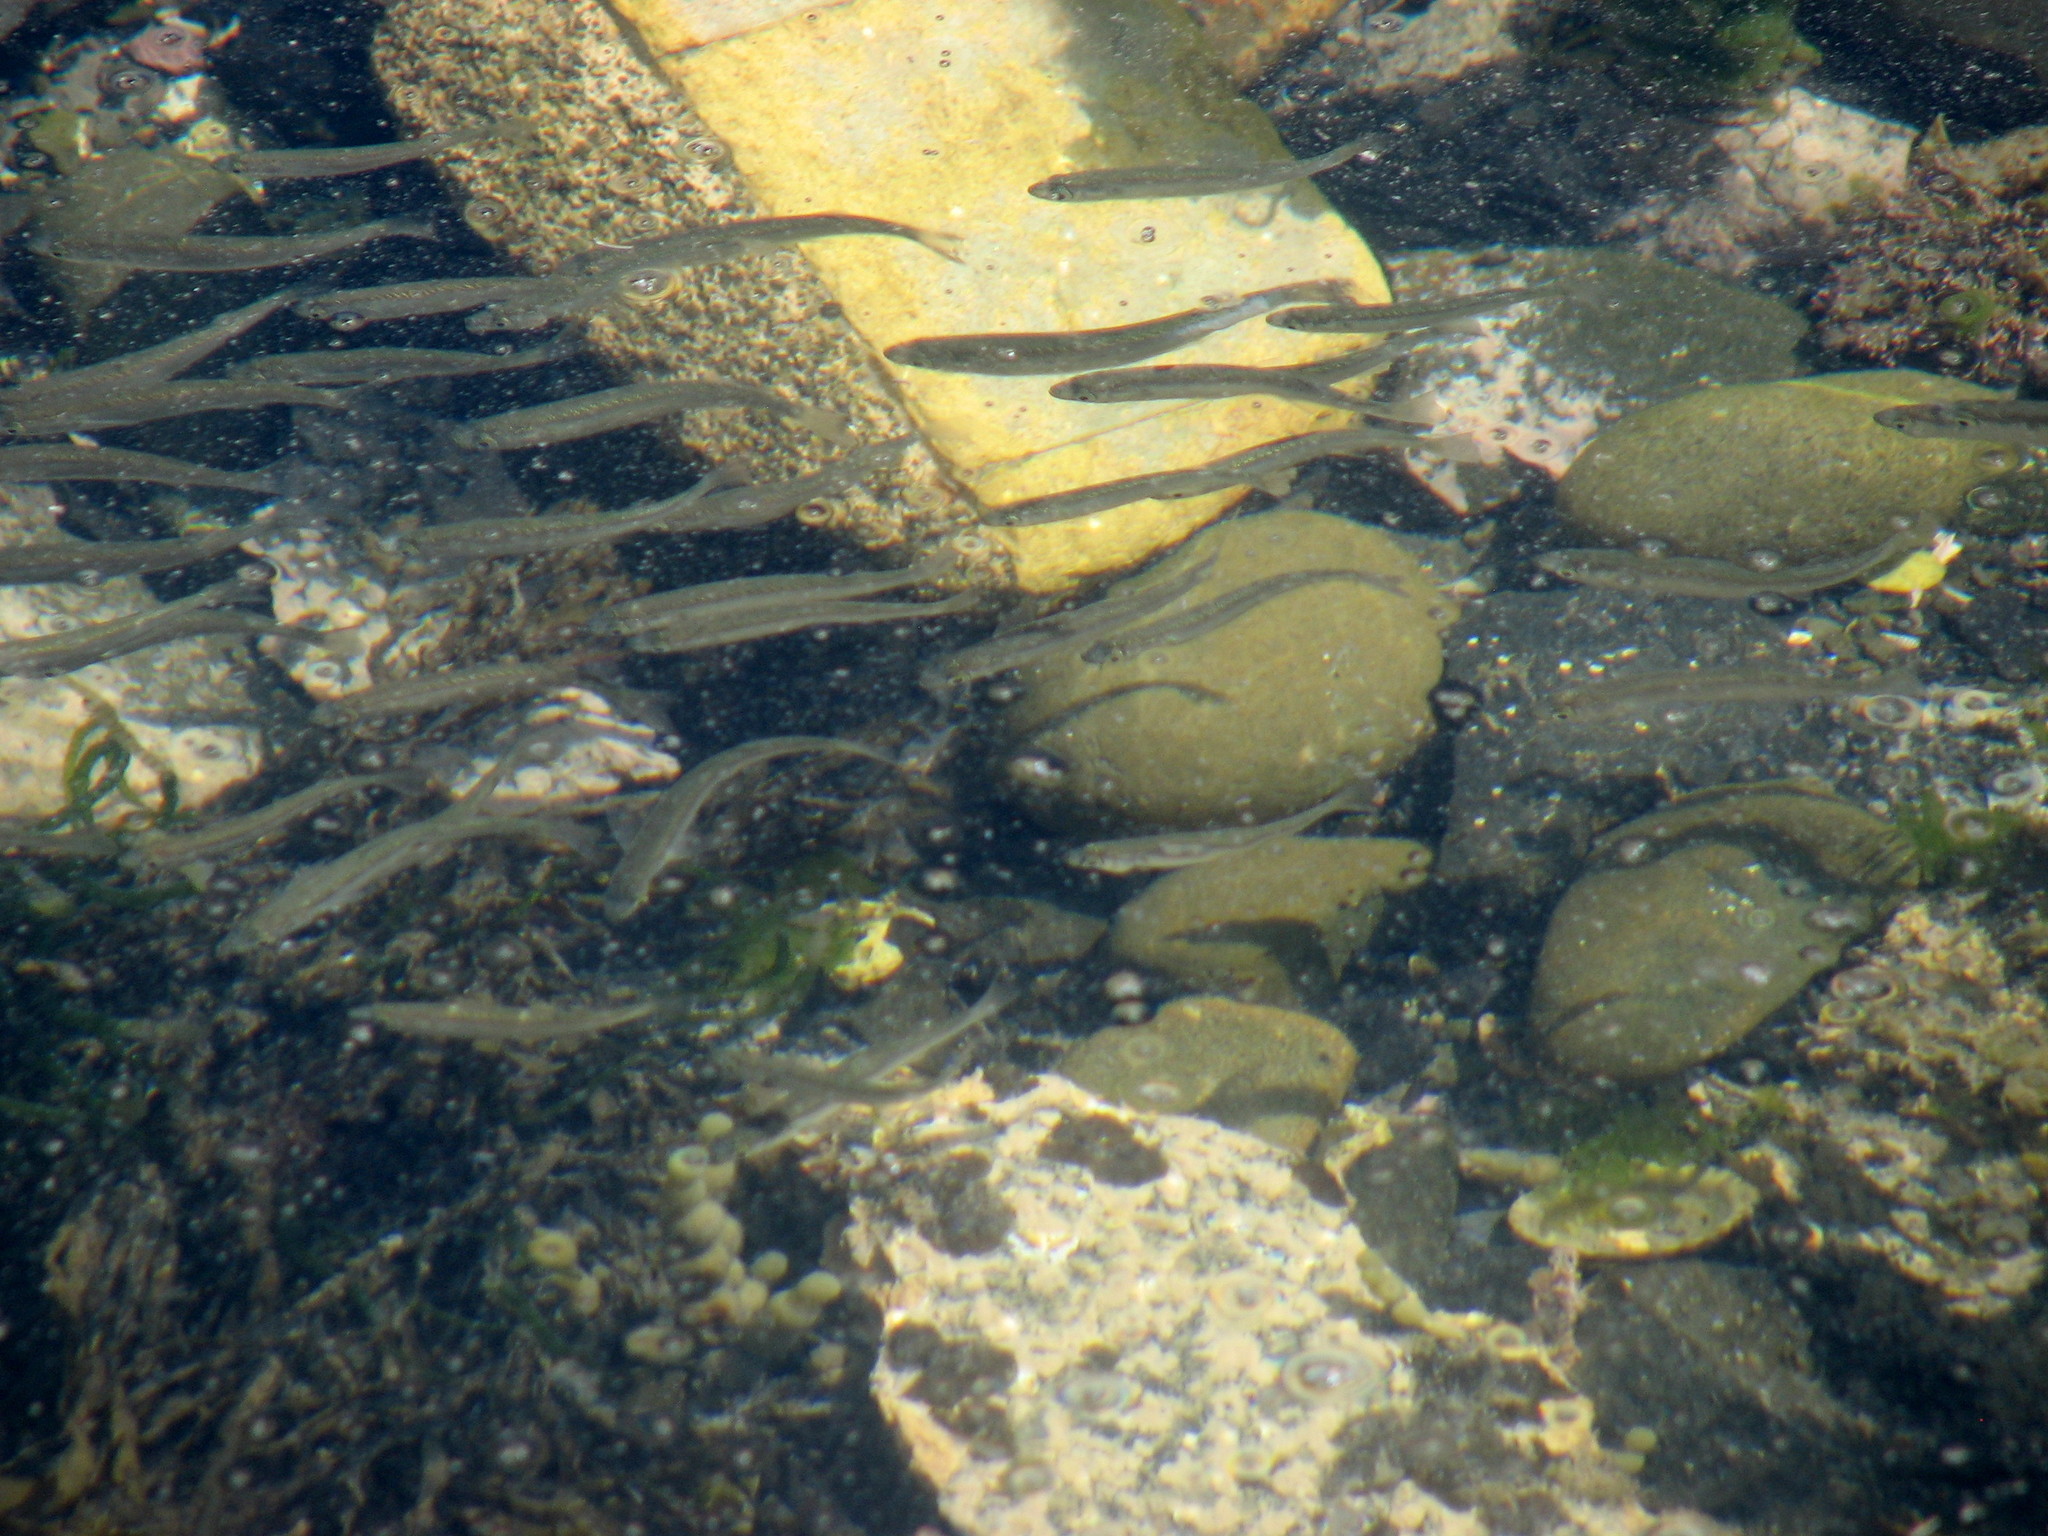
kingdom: Animalia
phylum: Chordata
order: Mugiliformes
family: Mugilidae
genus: Aldrichetta
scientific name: Aldrichetta forsteri
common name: Yellow-eye mullet
